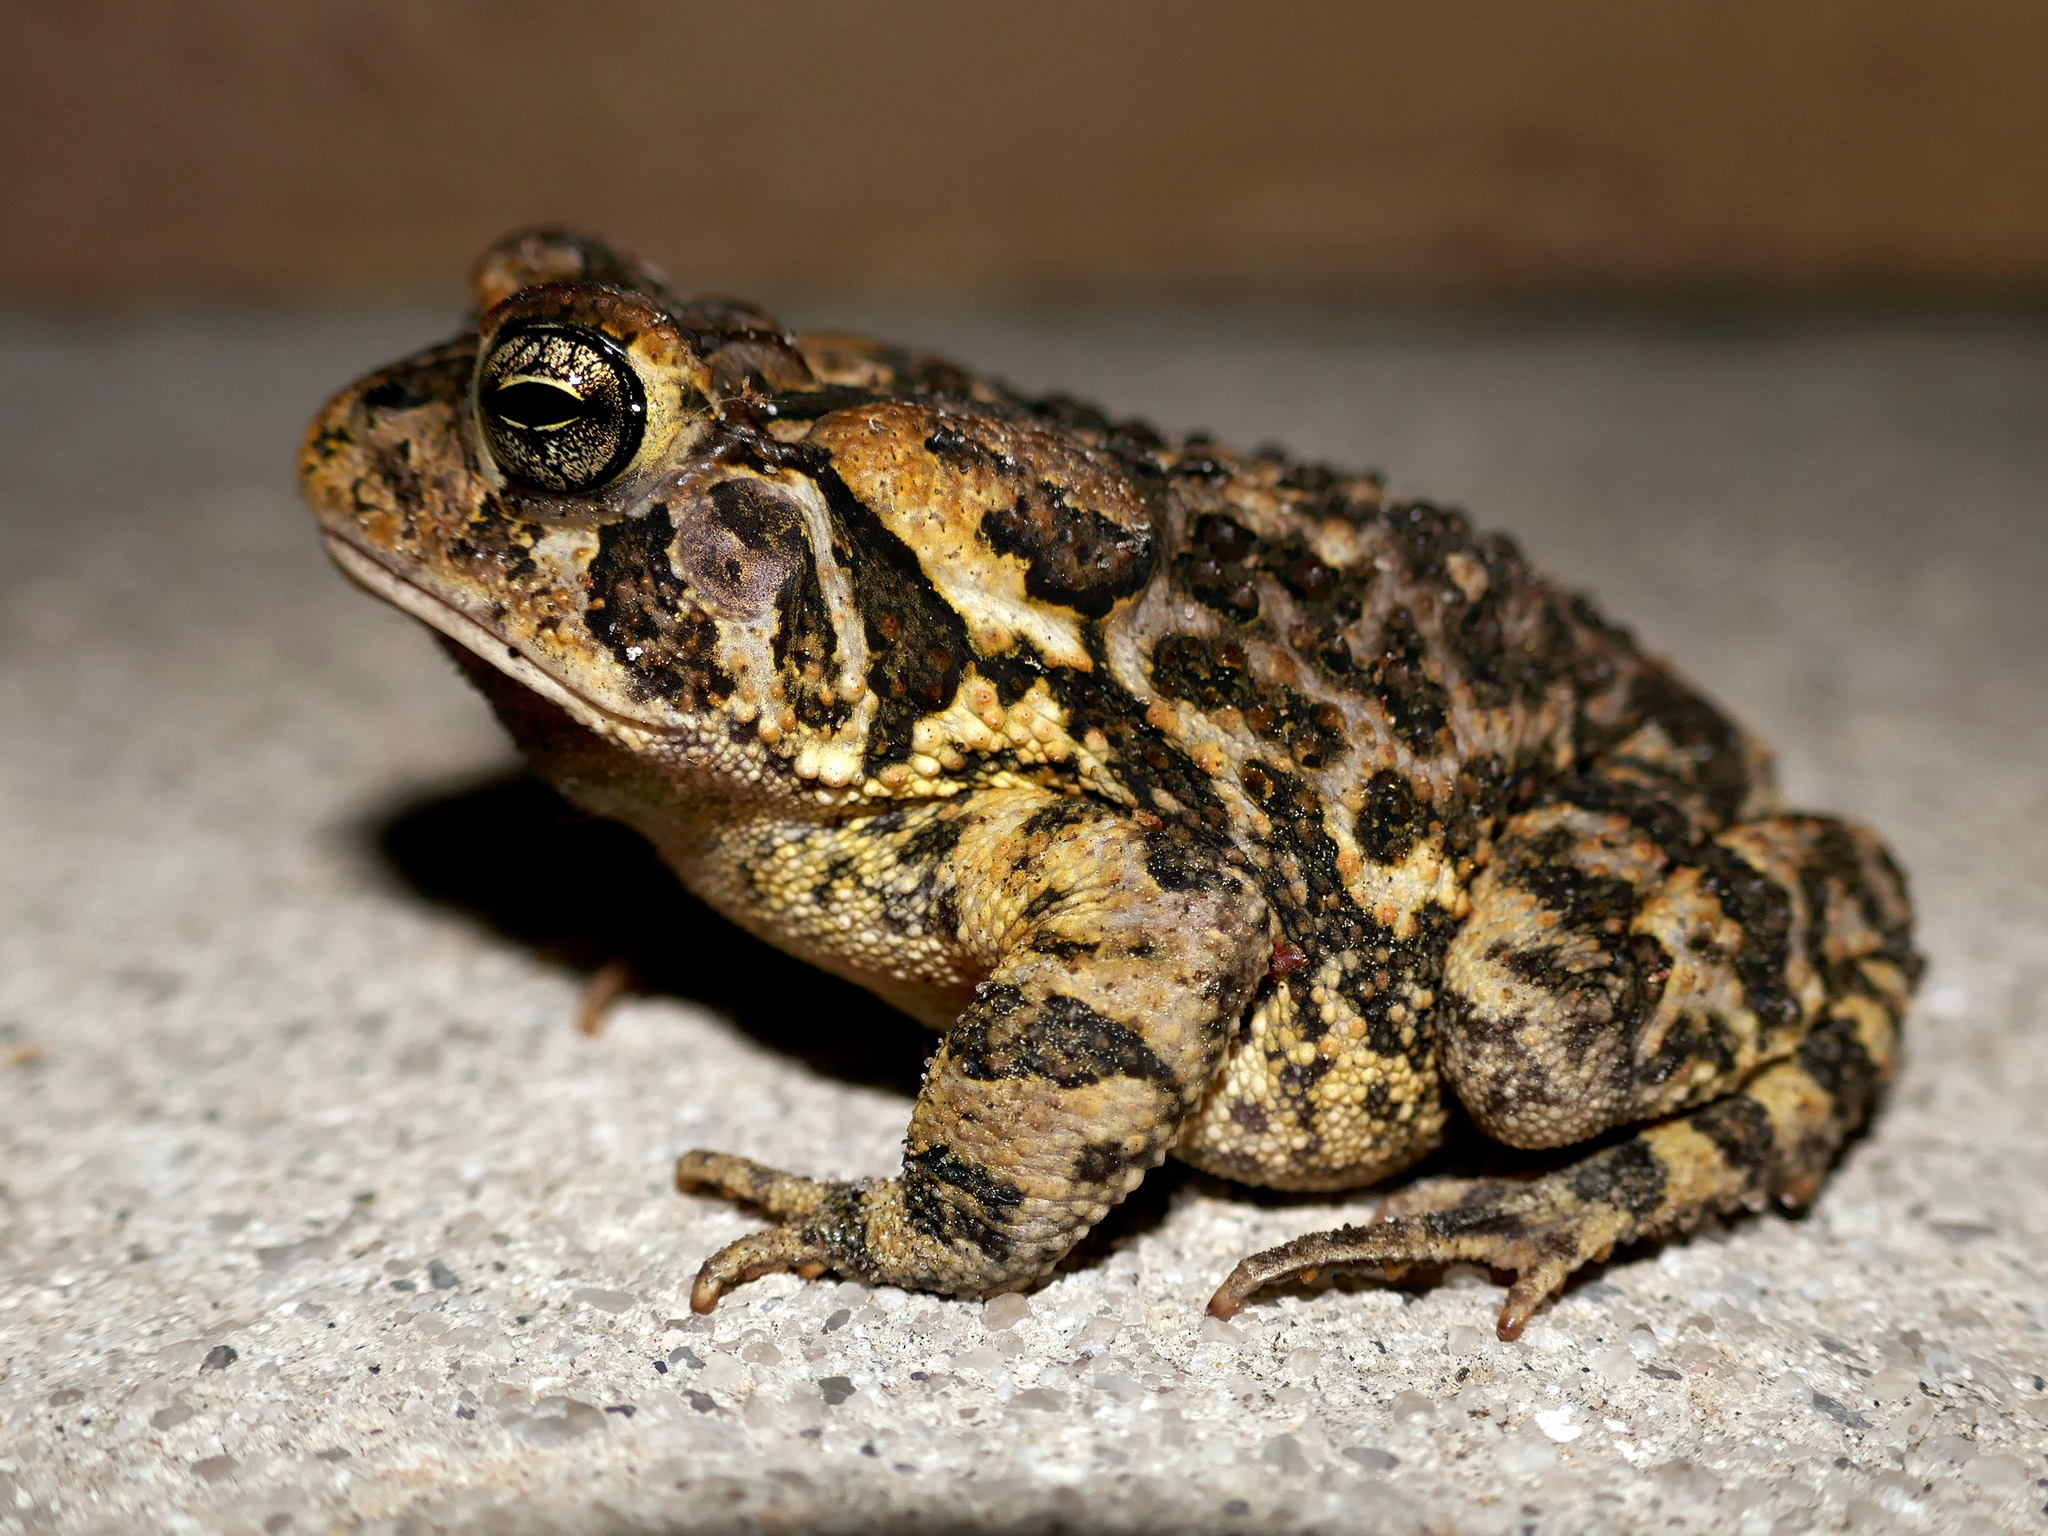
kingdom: Animalia
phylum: Chordata
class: Amphibia
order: Anura
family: Bufonidae
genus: Anaxyrus
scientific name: Anaxyrus terrestris
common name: Southern toad
